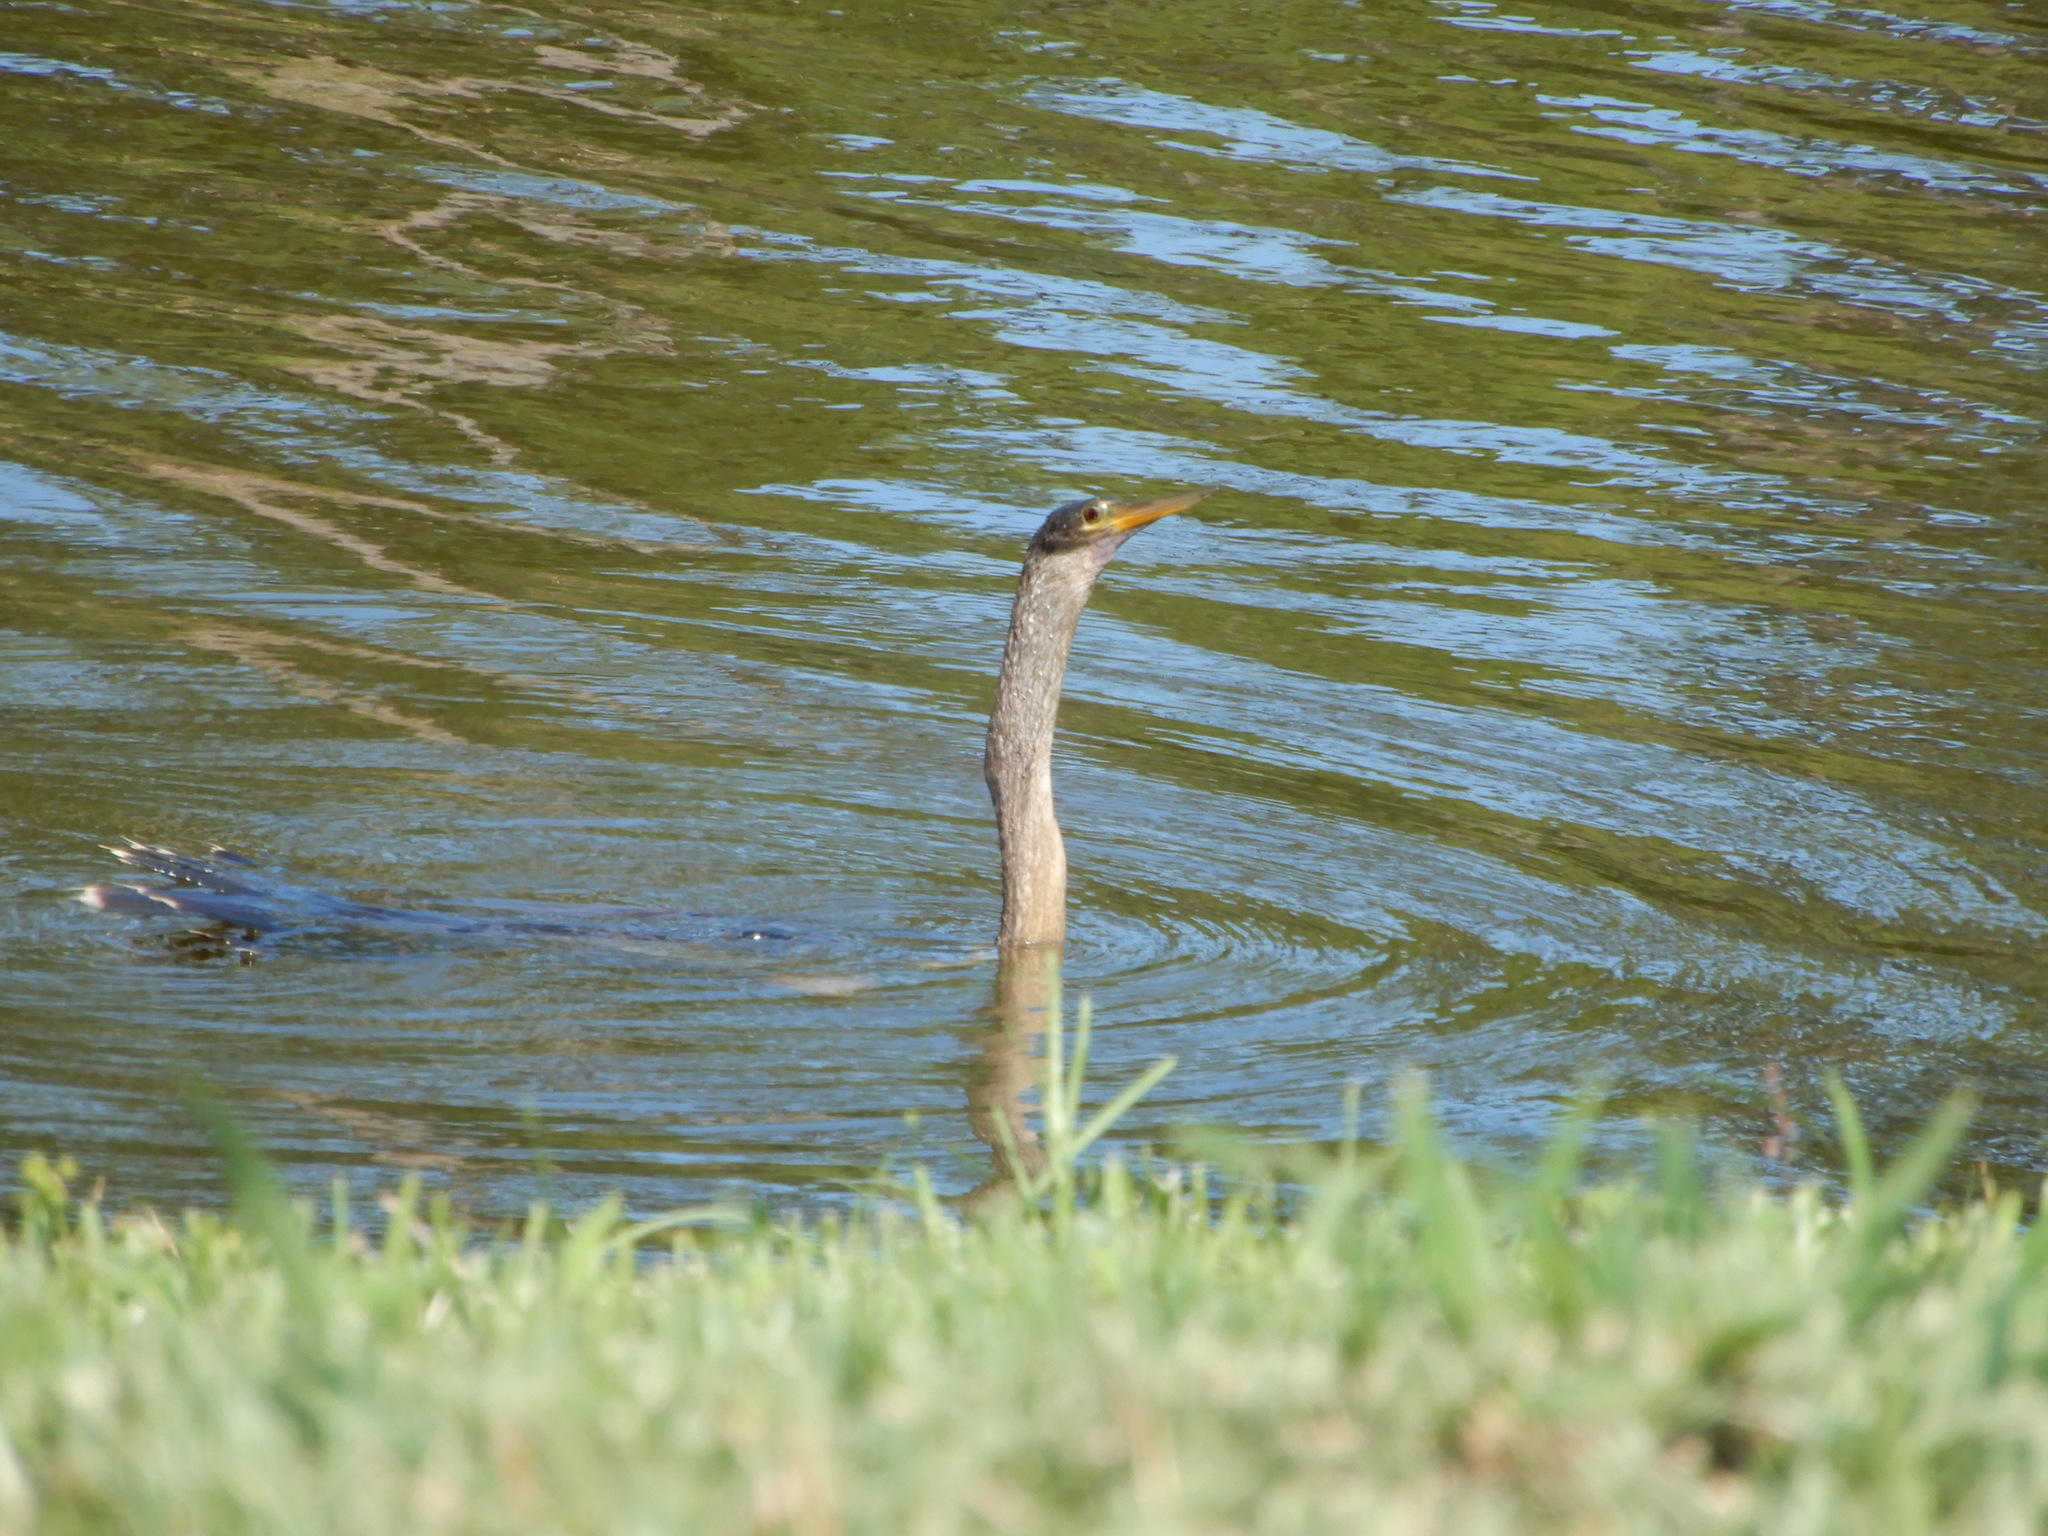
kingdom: Animalia
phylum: Chordata
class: Aves
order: Suliformes
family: Anhingidae
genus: Anhinga
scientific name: Anhinga anhinga
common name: Anhinga
